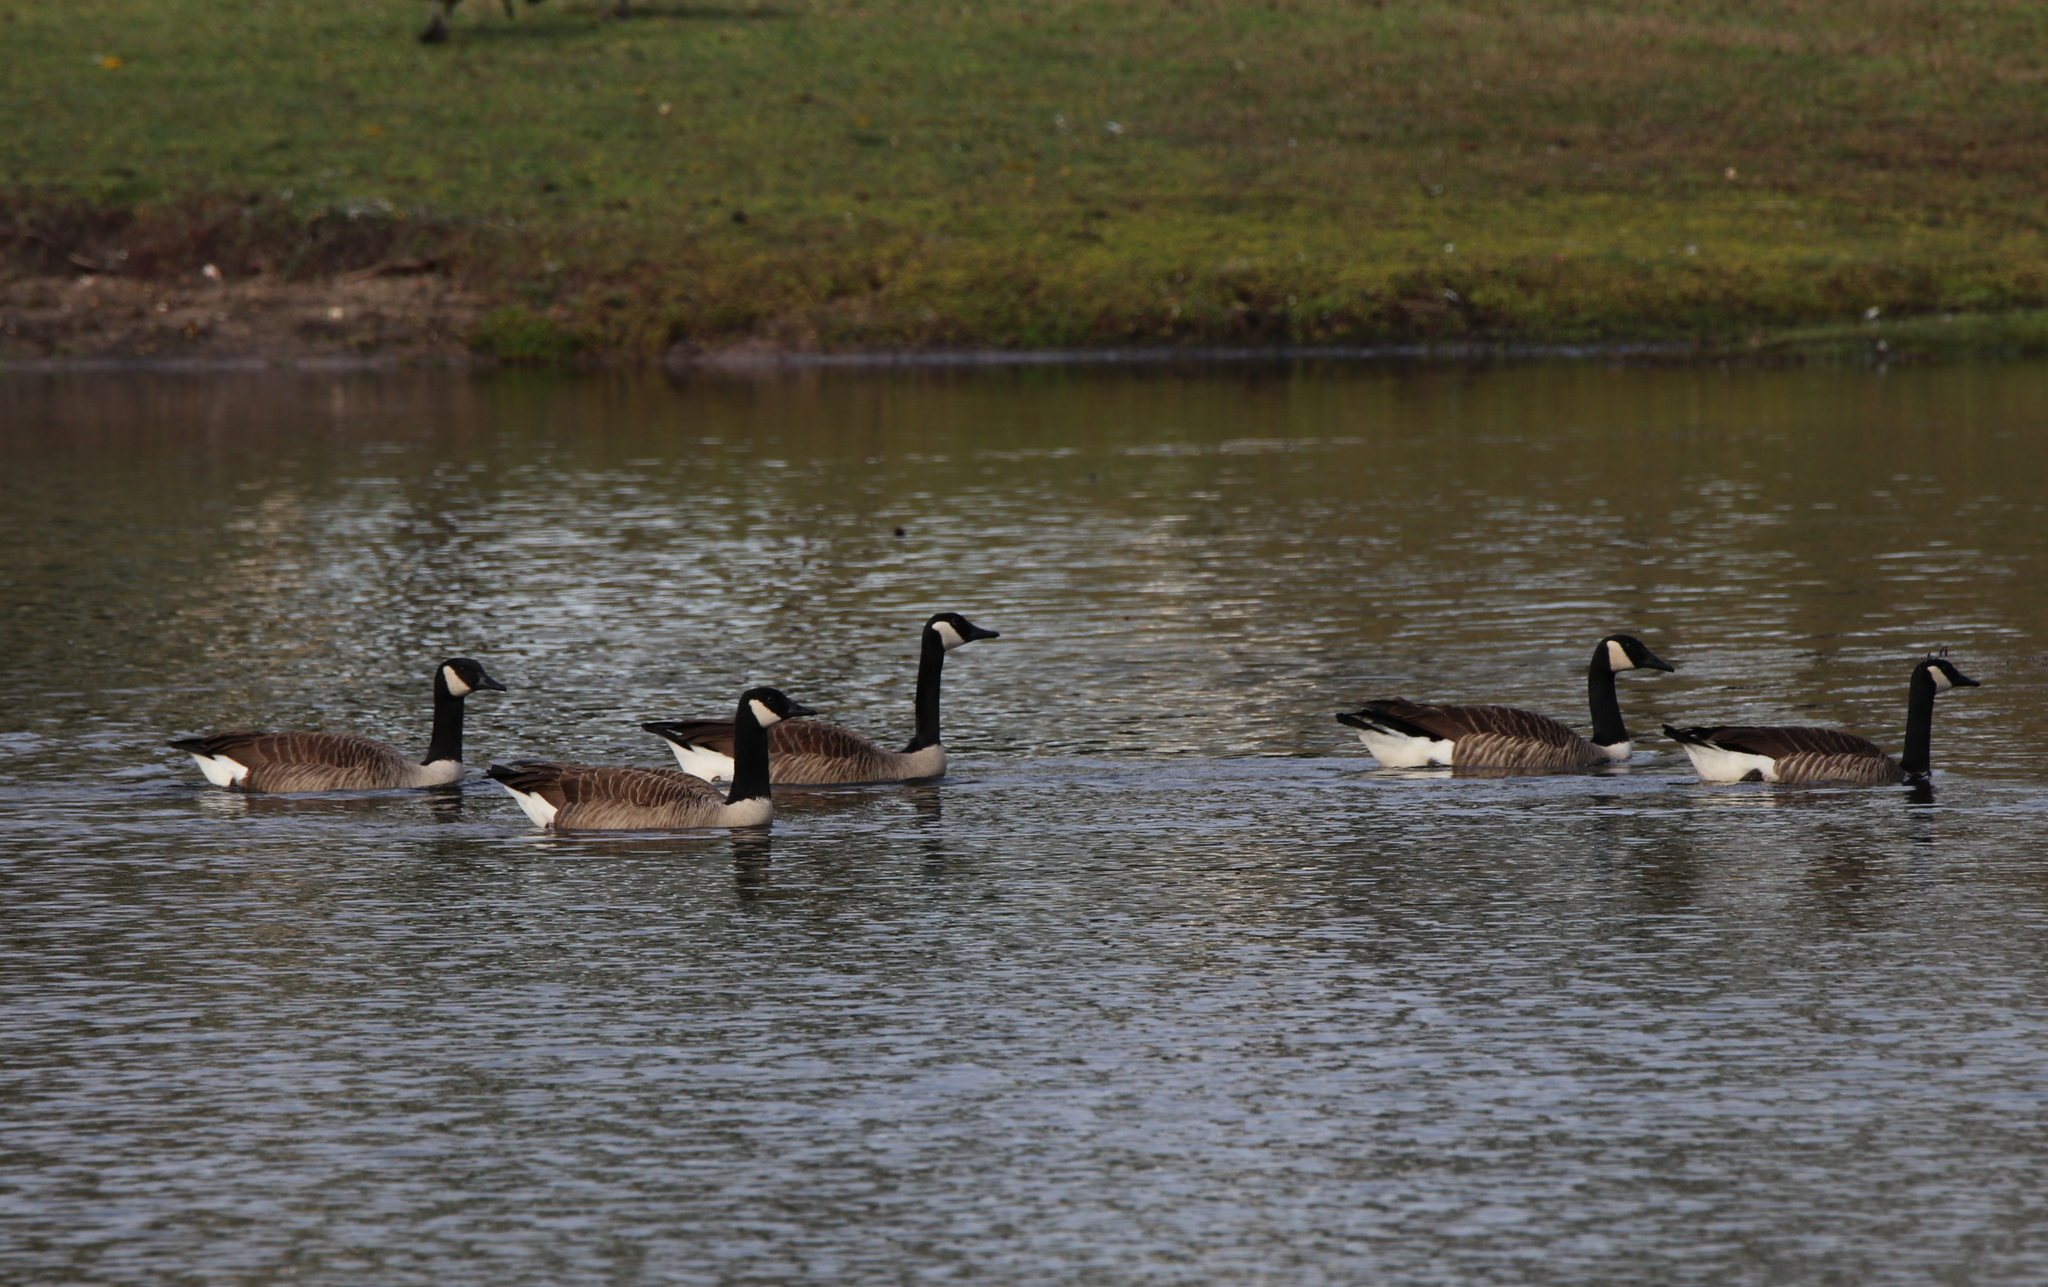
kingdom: Animalia
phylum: Chordata
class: Aves
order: Anseriformes
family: Anatidae
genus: Branta
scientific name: Branta canadensis
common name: Canada goose
